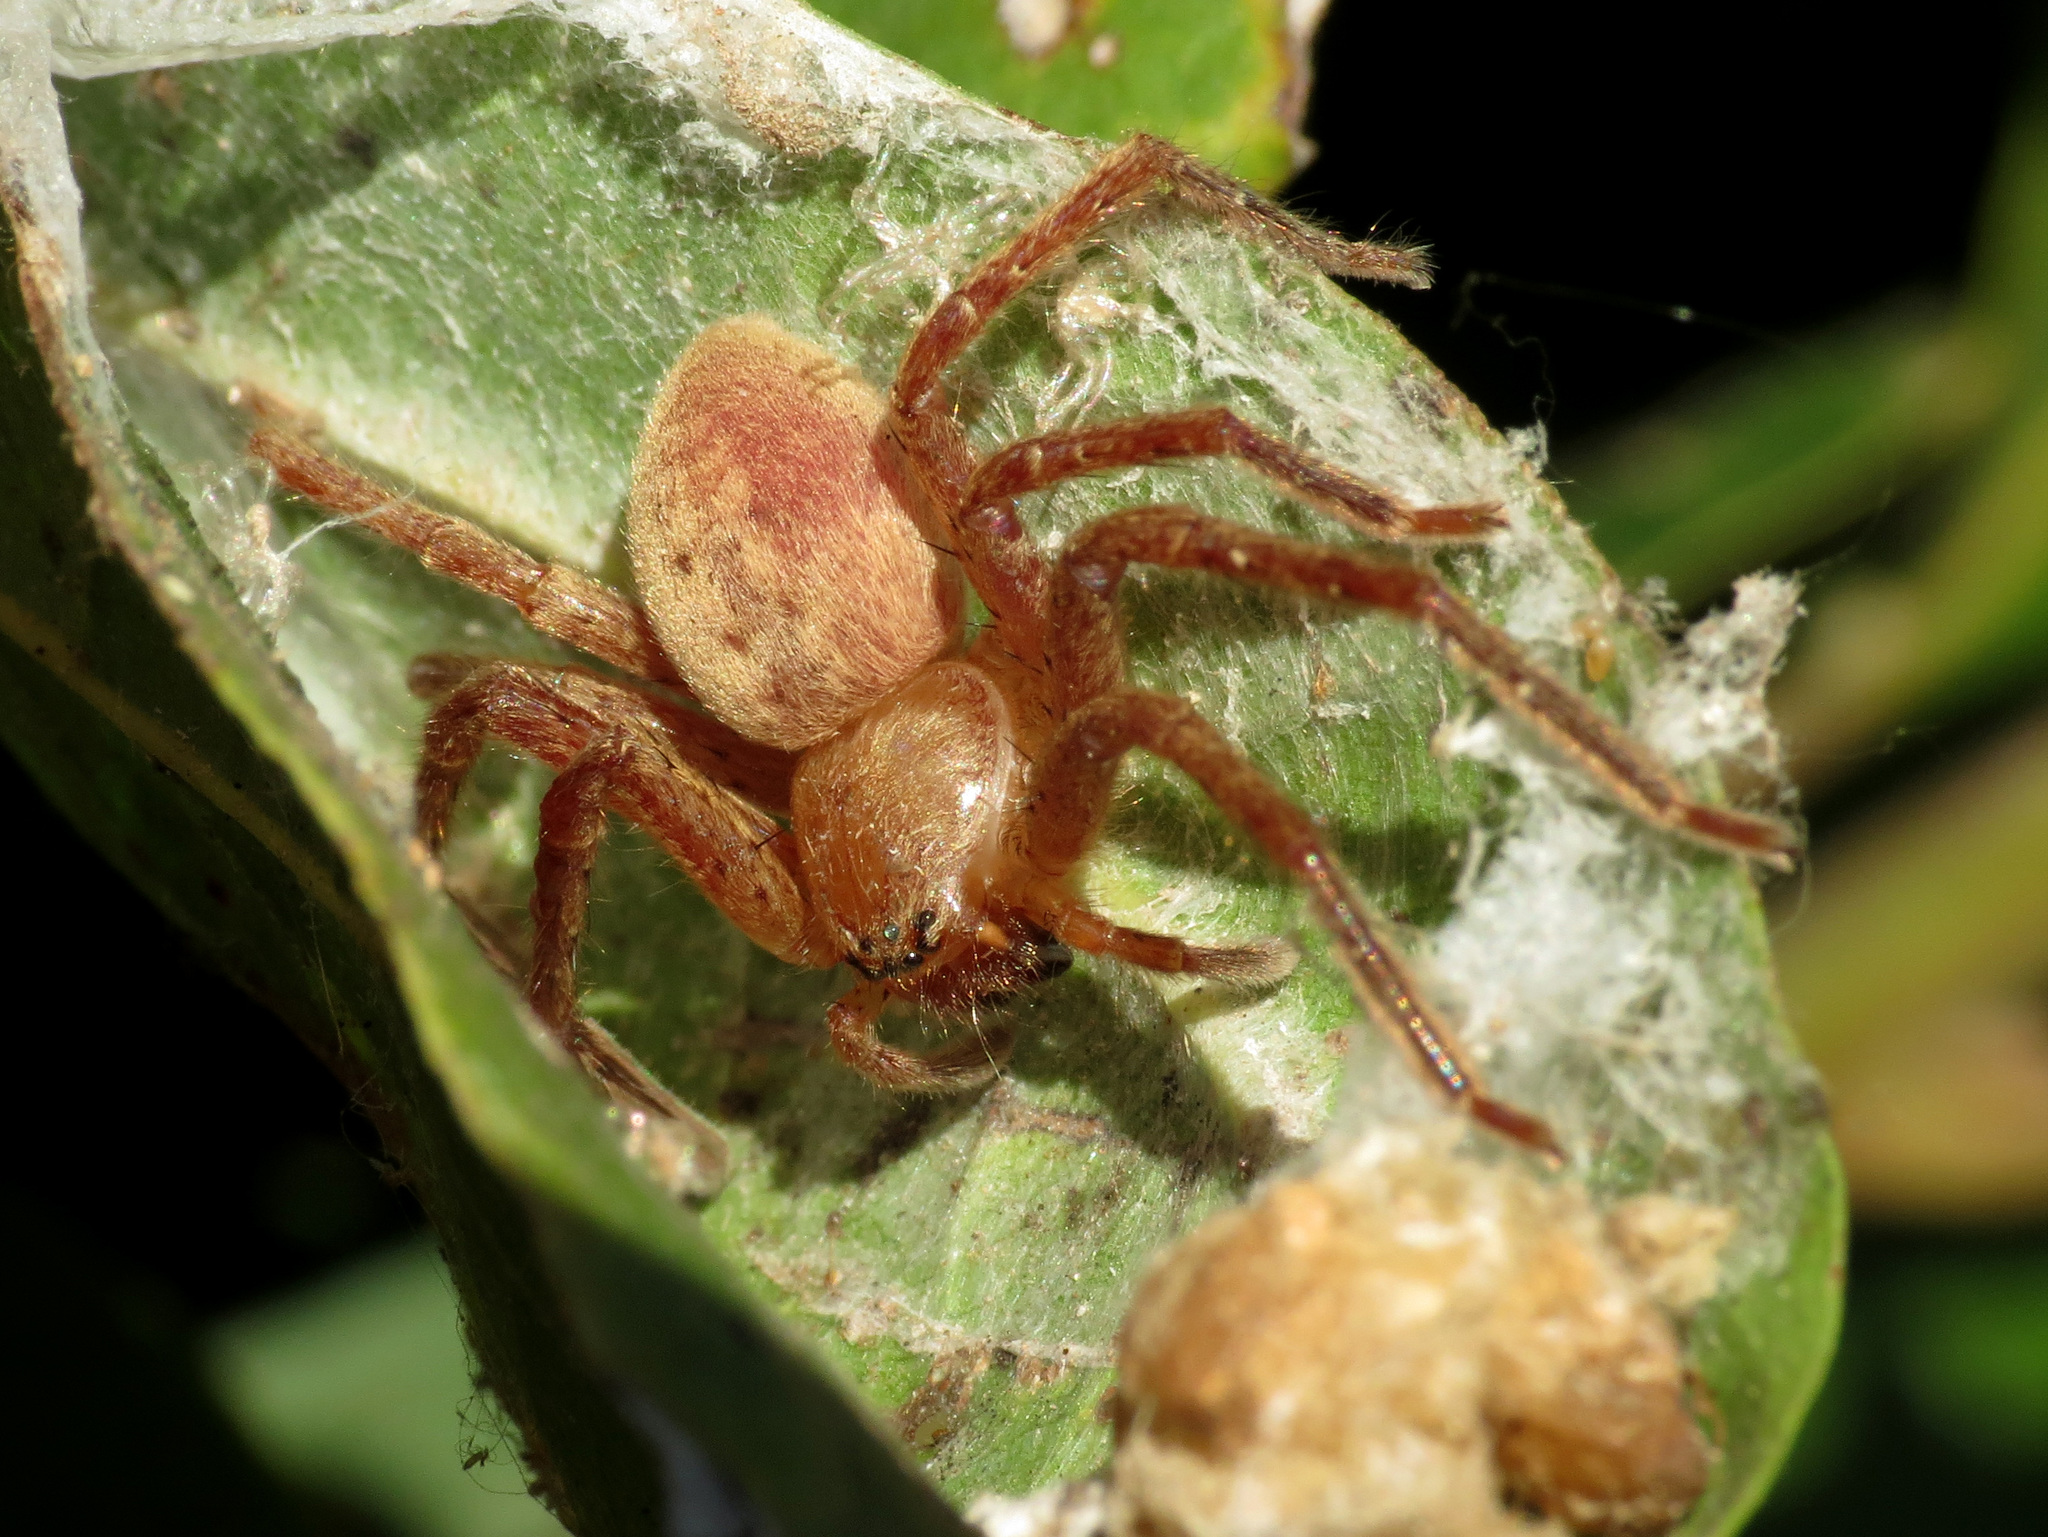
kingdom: Animalia
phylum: Arthropoda
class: Arachnida
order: Araneae
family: Sparassidae
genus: Olios
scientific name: Olios argelasius
